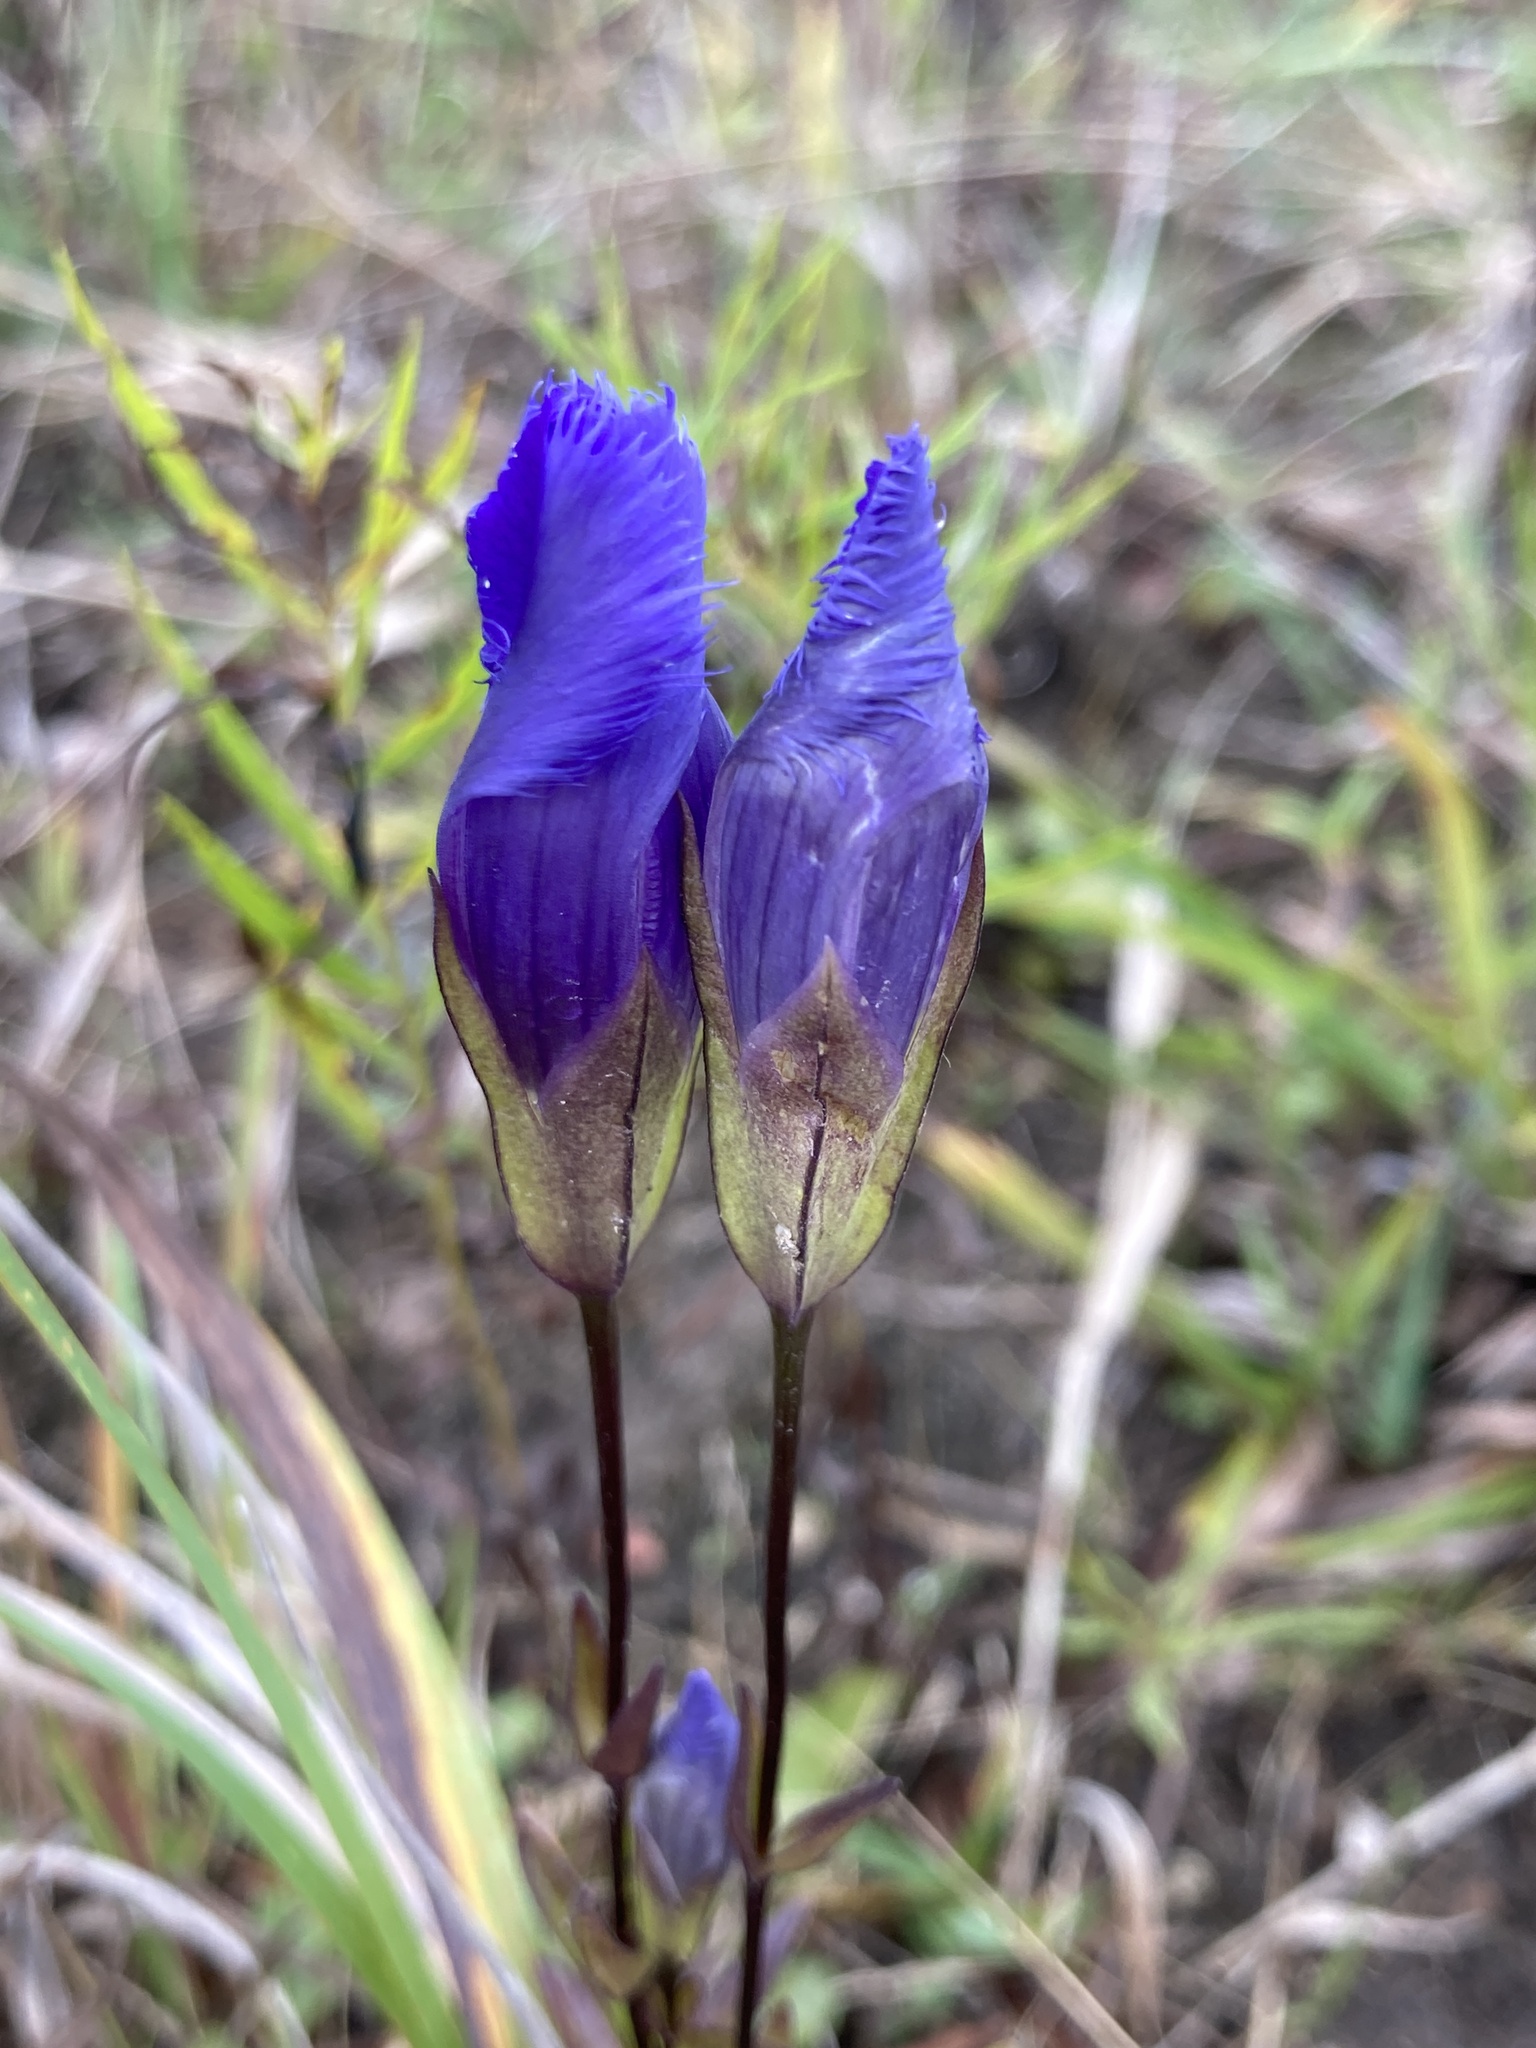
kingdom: Plantae
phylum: Tracheophyta
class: Magnoliopsida
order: Gentianales
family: Gentianaceae
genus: Gentianopsis
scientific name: Gentianopsis virgata
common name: Lesser fringed-gentian
